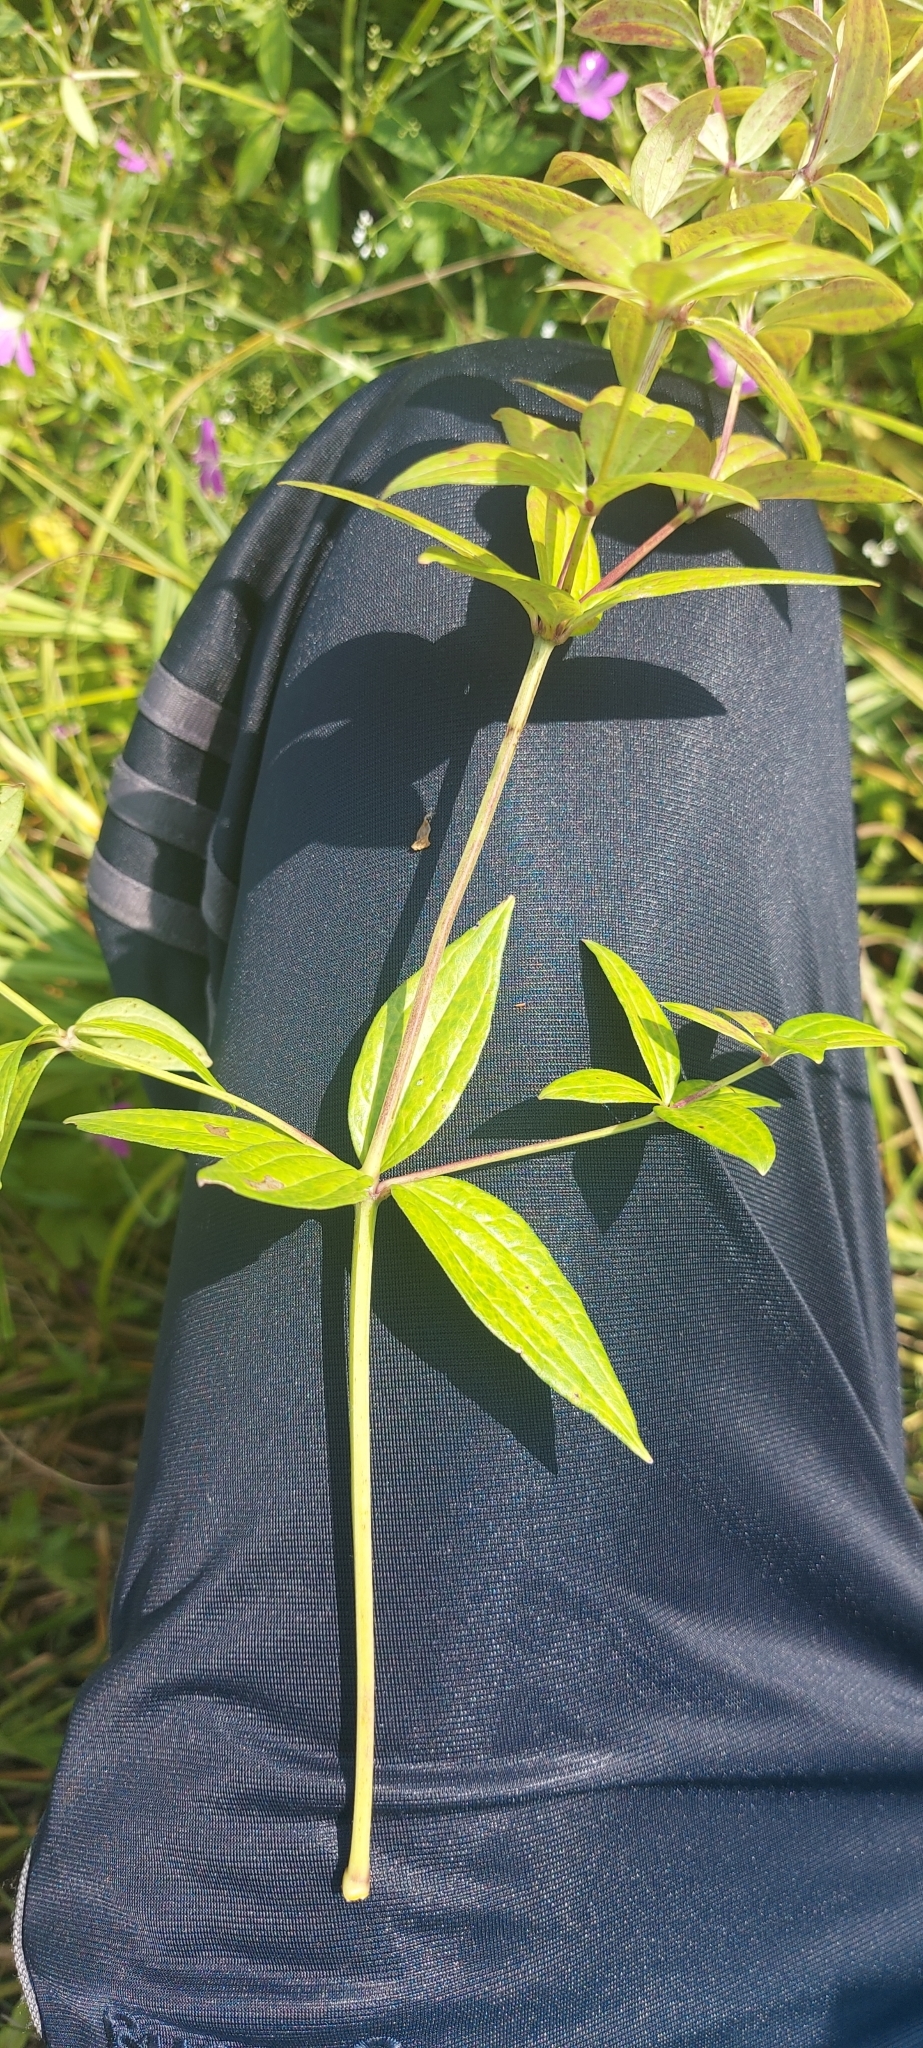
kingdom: Plantae
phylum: Tracheophyta
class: Magnoliopsida
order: Gentianales
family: Rubiaceae
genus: Galium
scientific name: Galium rubioides
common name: European bedstraw
